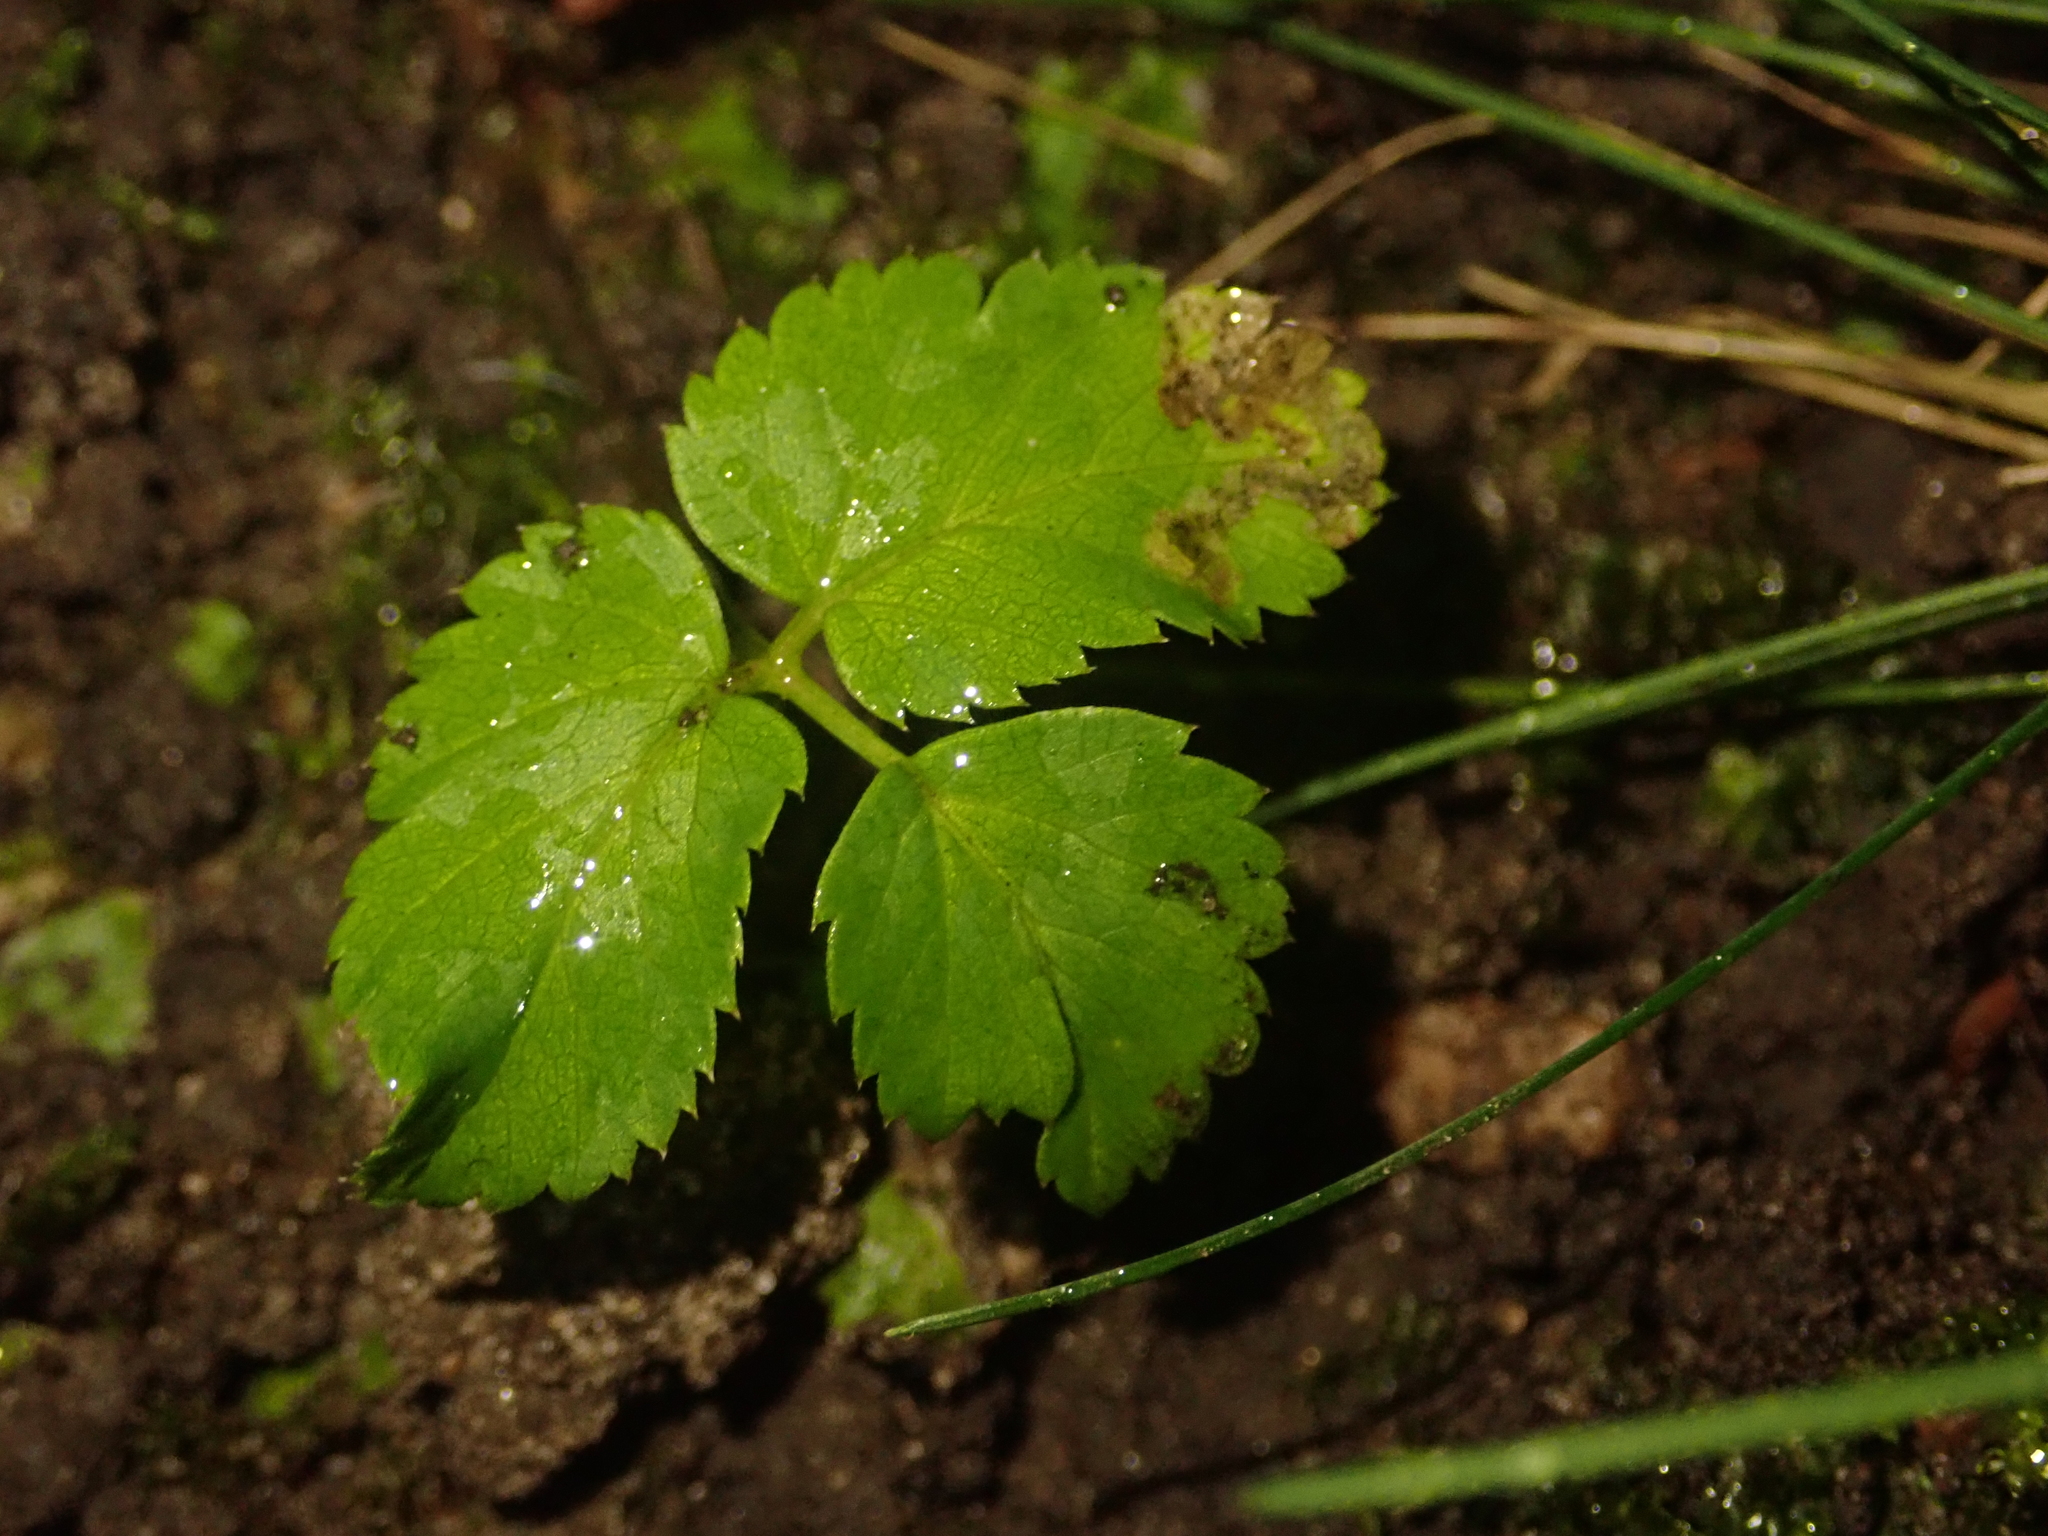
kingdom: Plantae
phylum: Tracheophyta
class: Magnoliopsida
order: Apiales
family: Apiaceae
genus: Aegopodium
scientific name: Aegopodium podagraria
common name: Ground-elder
